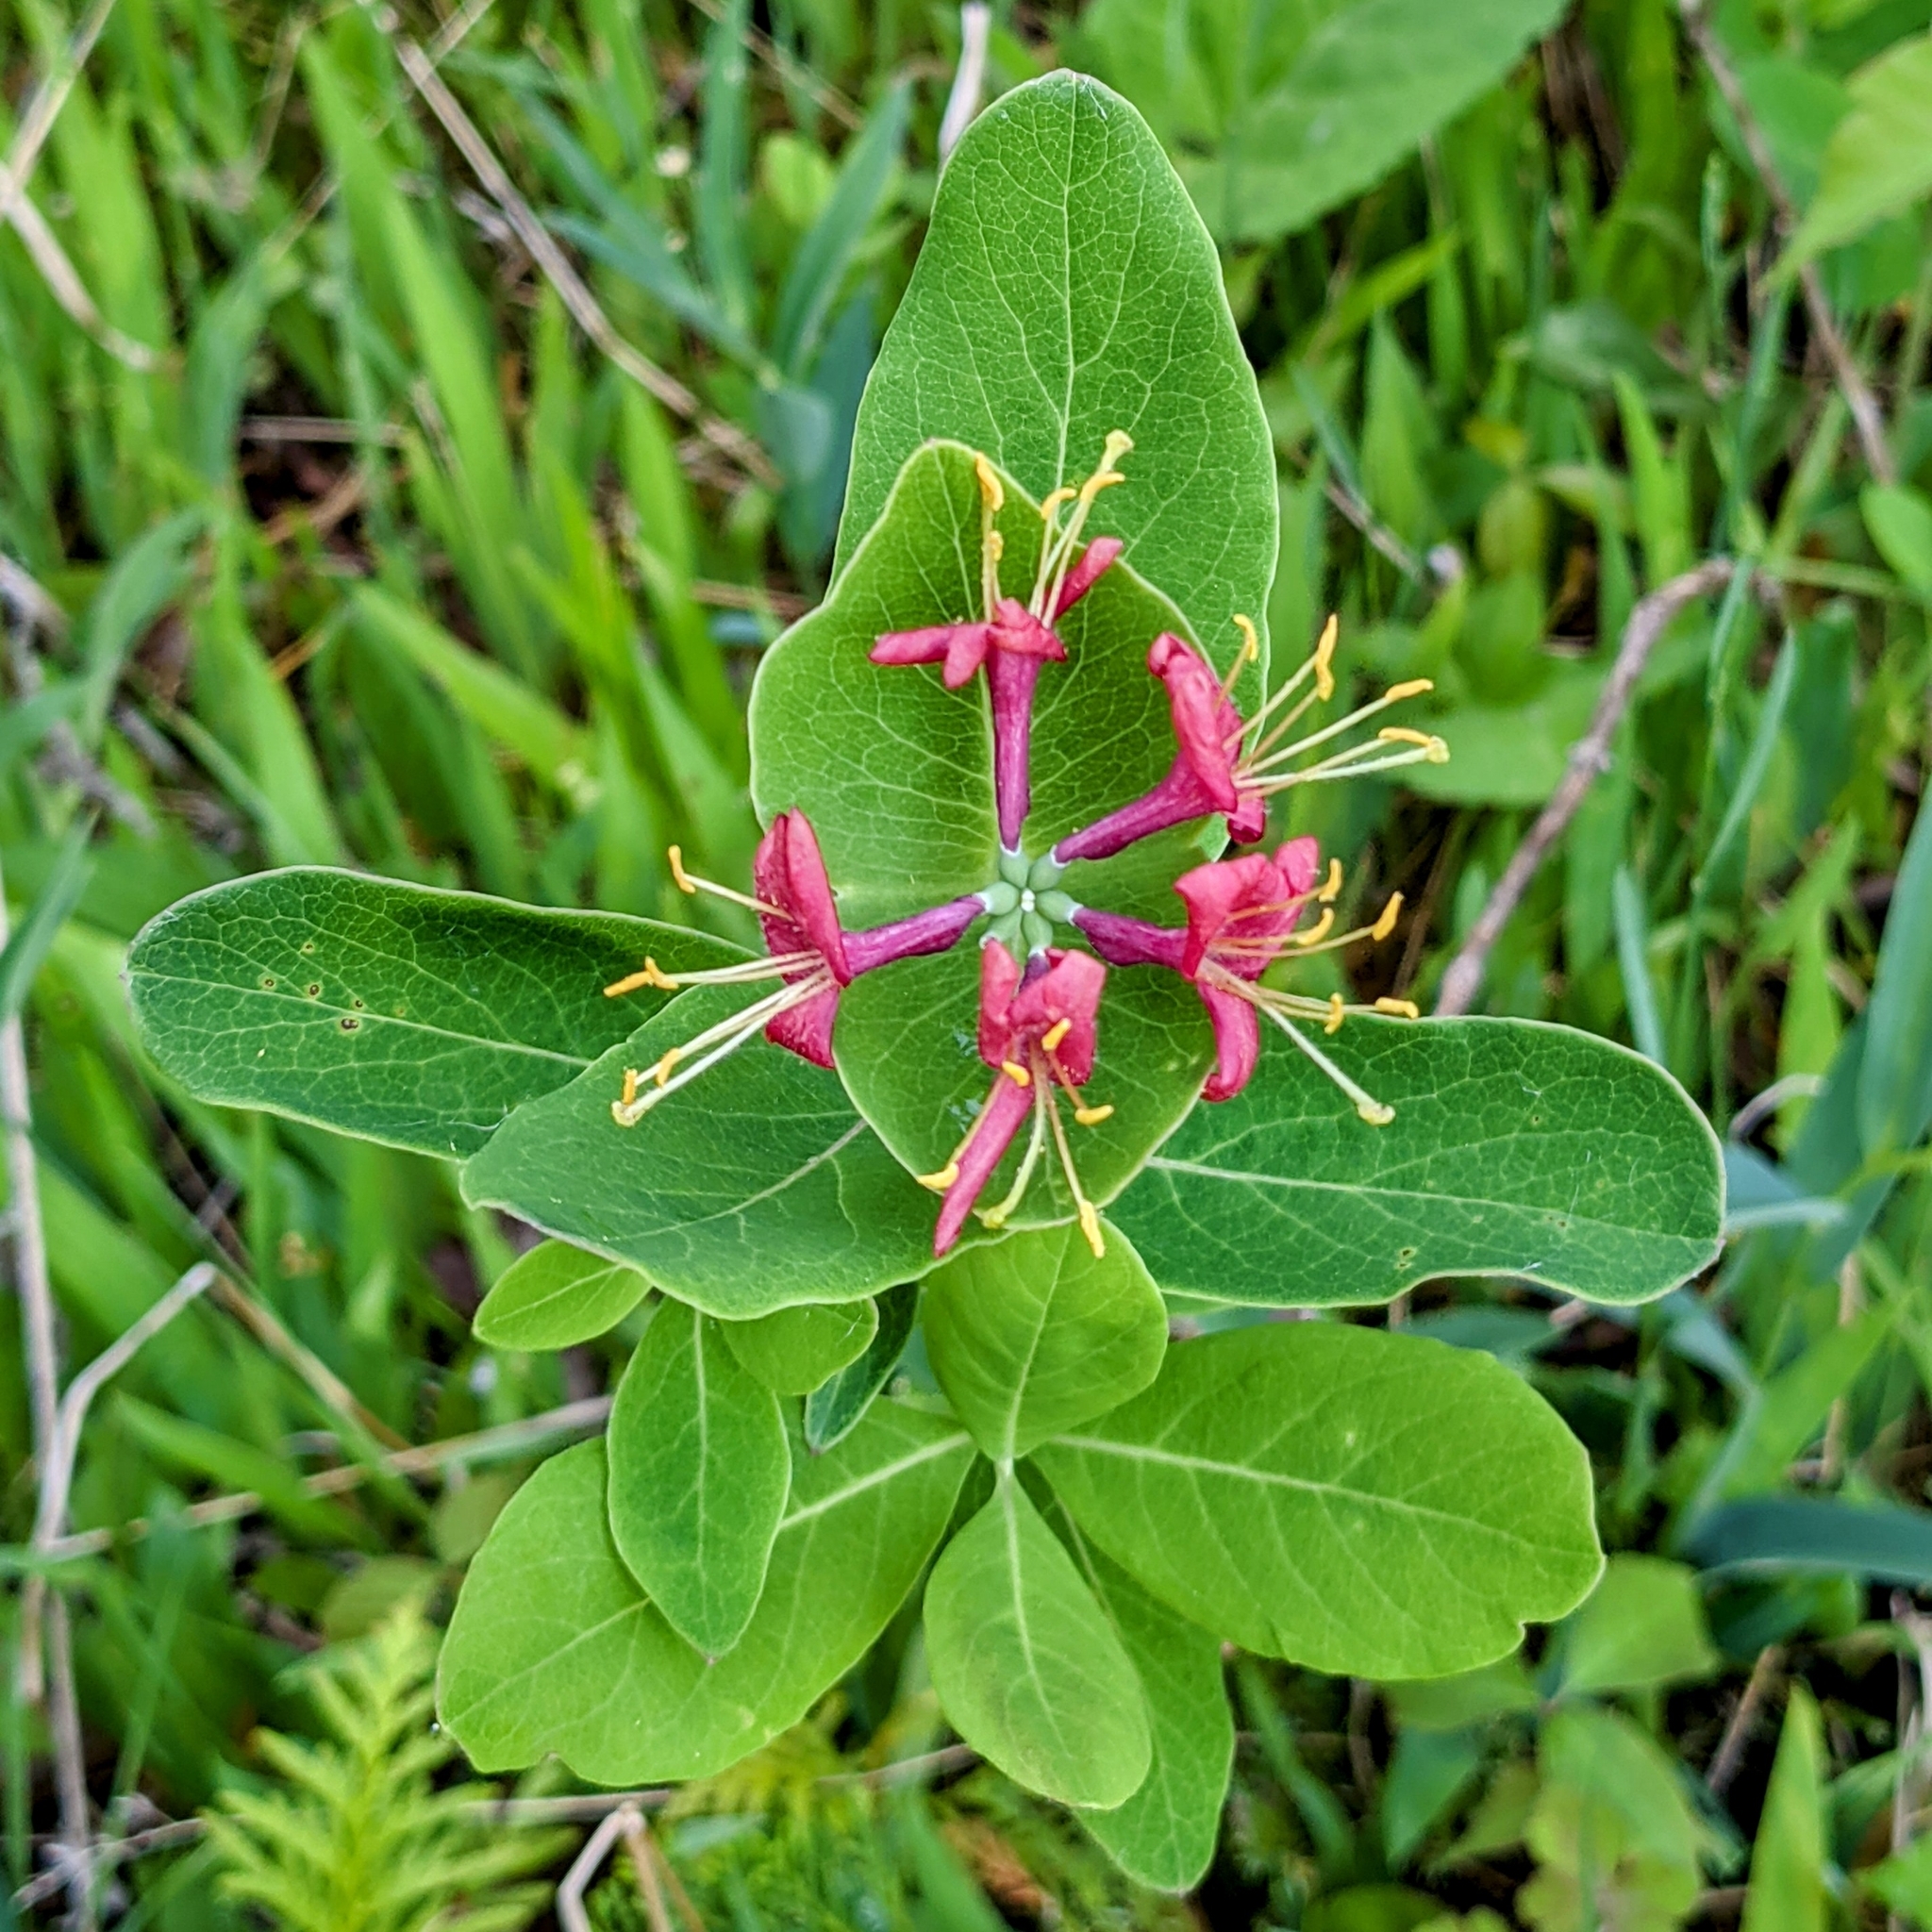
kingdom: Plantae
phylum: Tracheophyta
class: Magnoliopsida
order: Dipsacales
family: Caprifoliaceae
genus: Lonicera
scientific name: Lonicera dioica
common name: Limber honeysuckle
